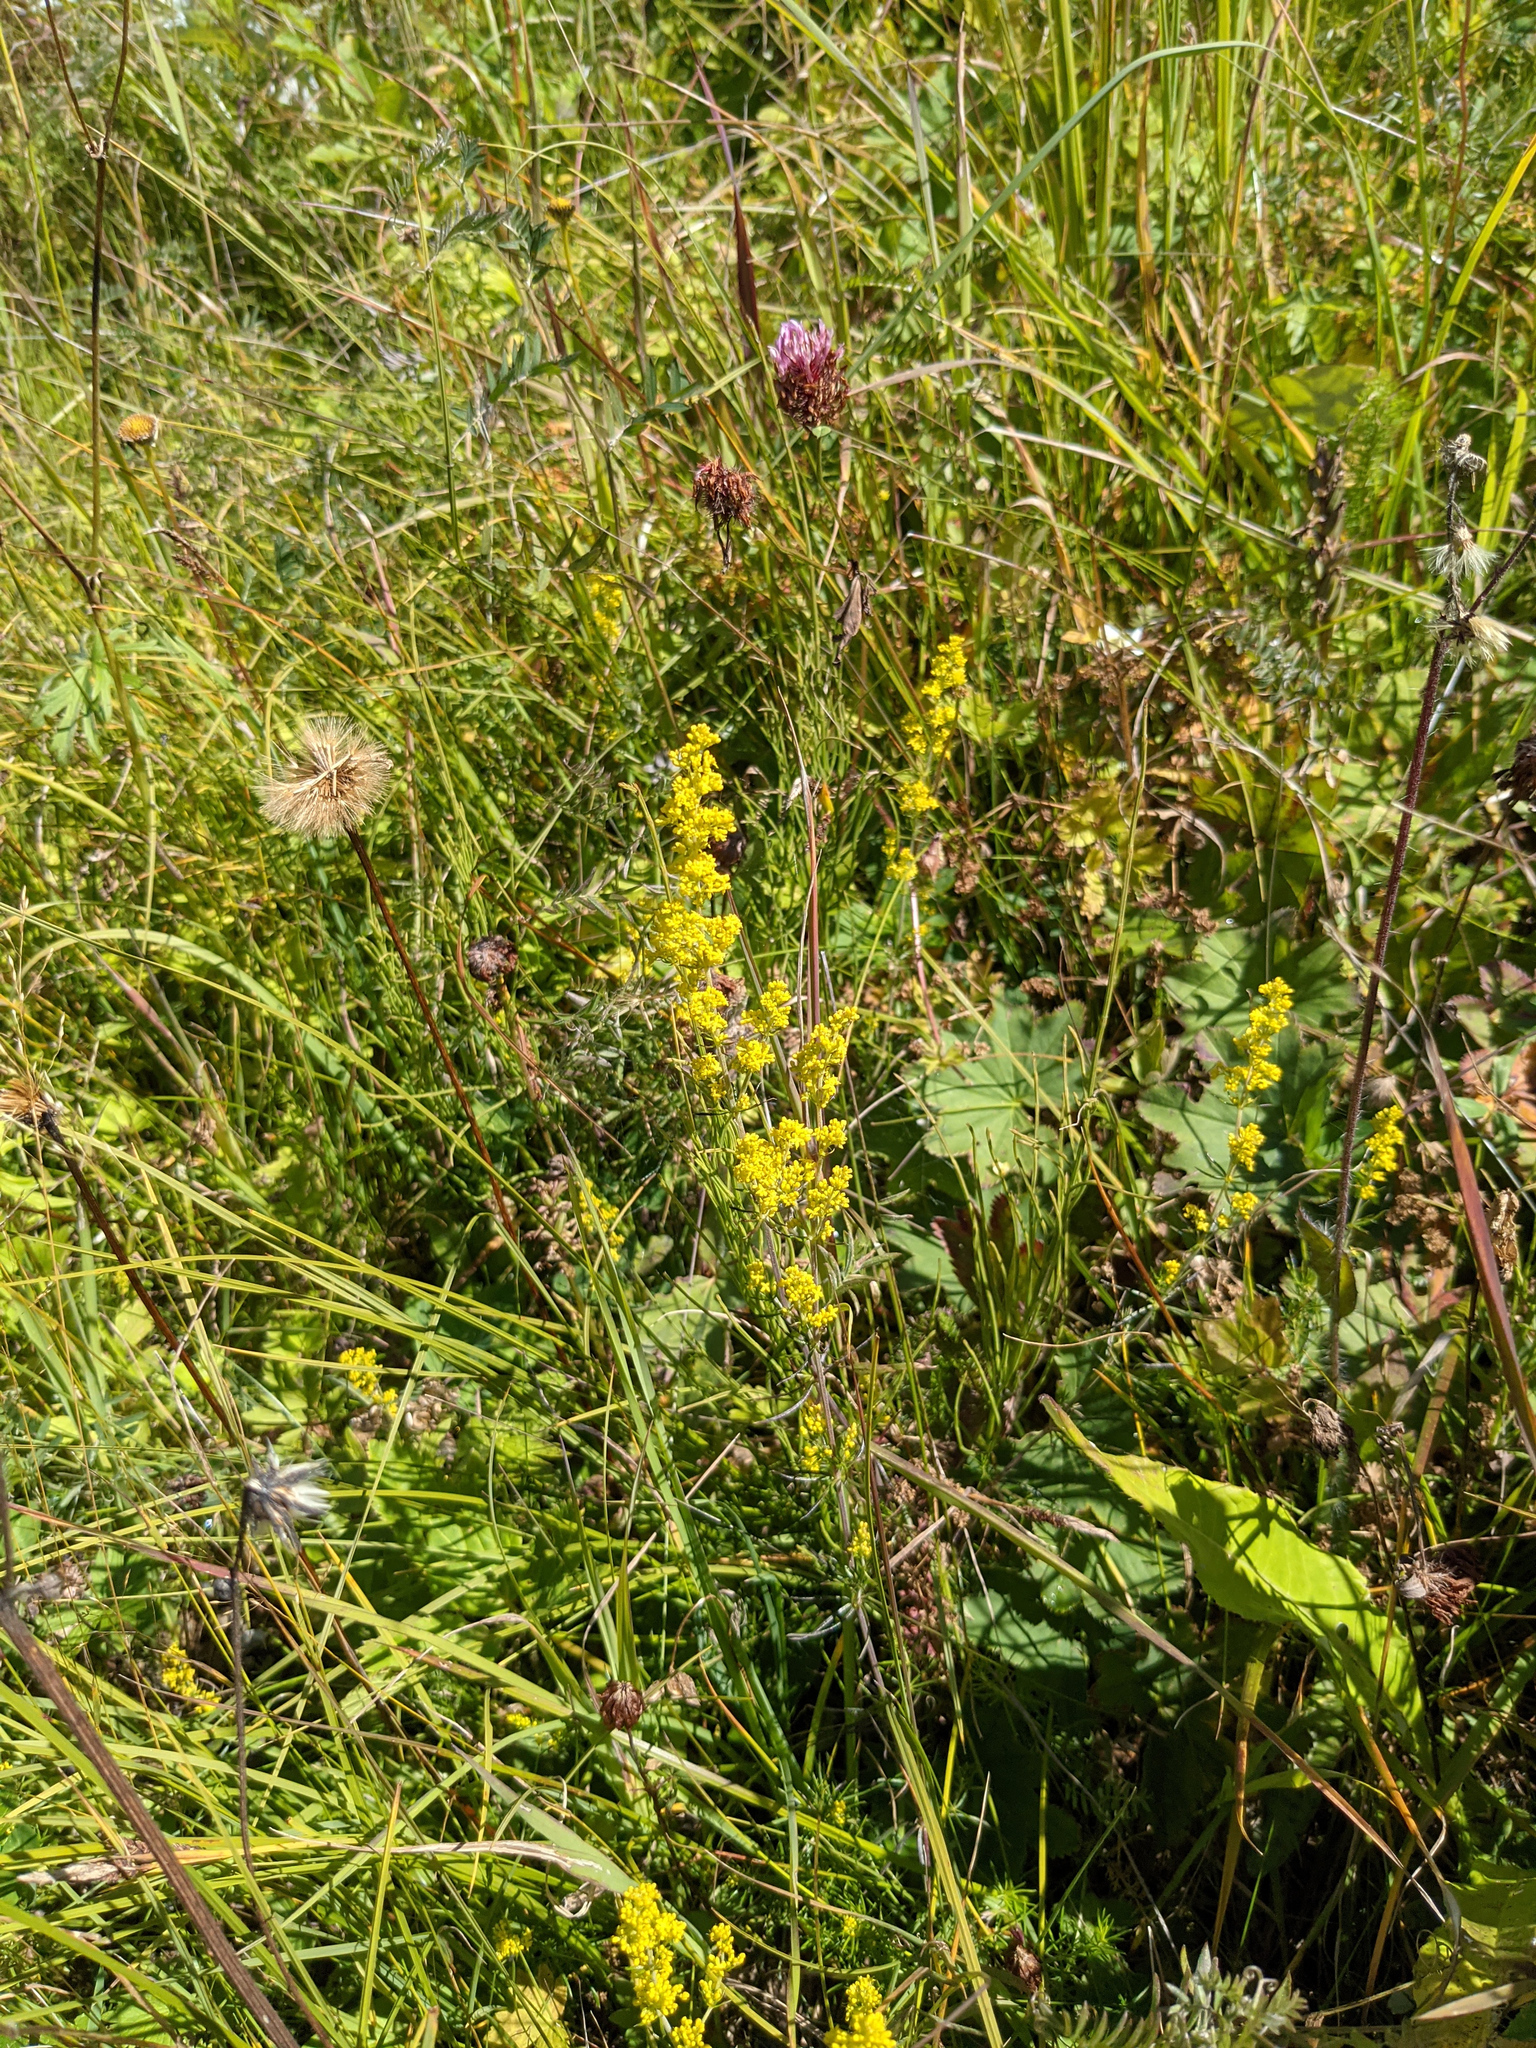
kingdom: Plantae
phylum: Tracheophyta
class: Magnoliopsida
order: Gentianales
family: Rubiaceae
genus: Galium
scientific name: Galium verum
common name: Lady's bedstraw
